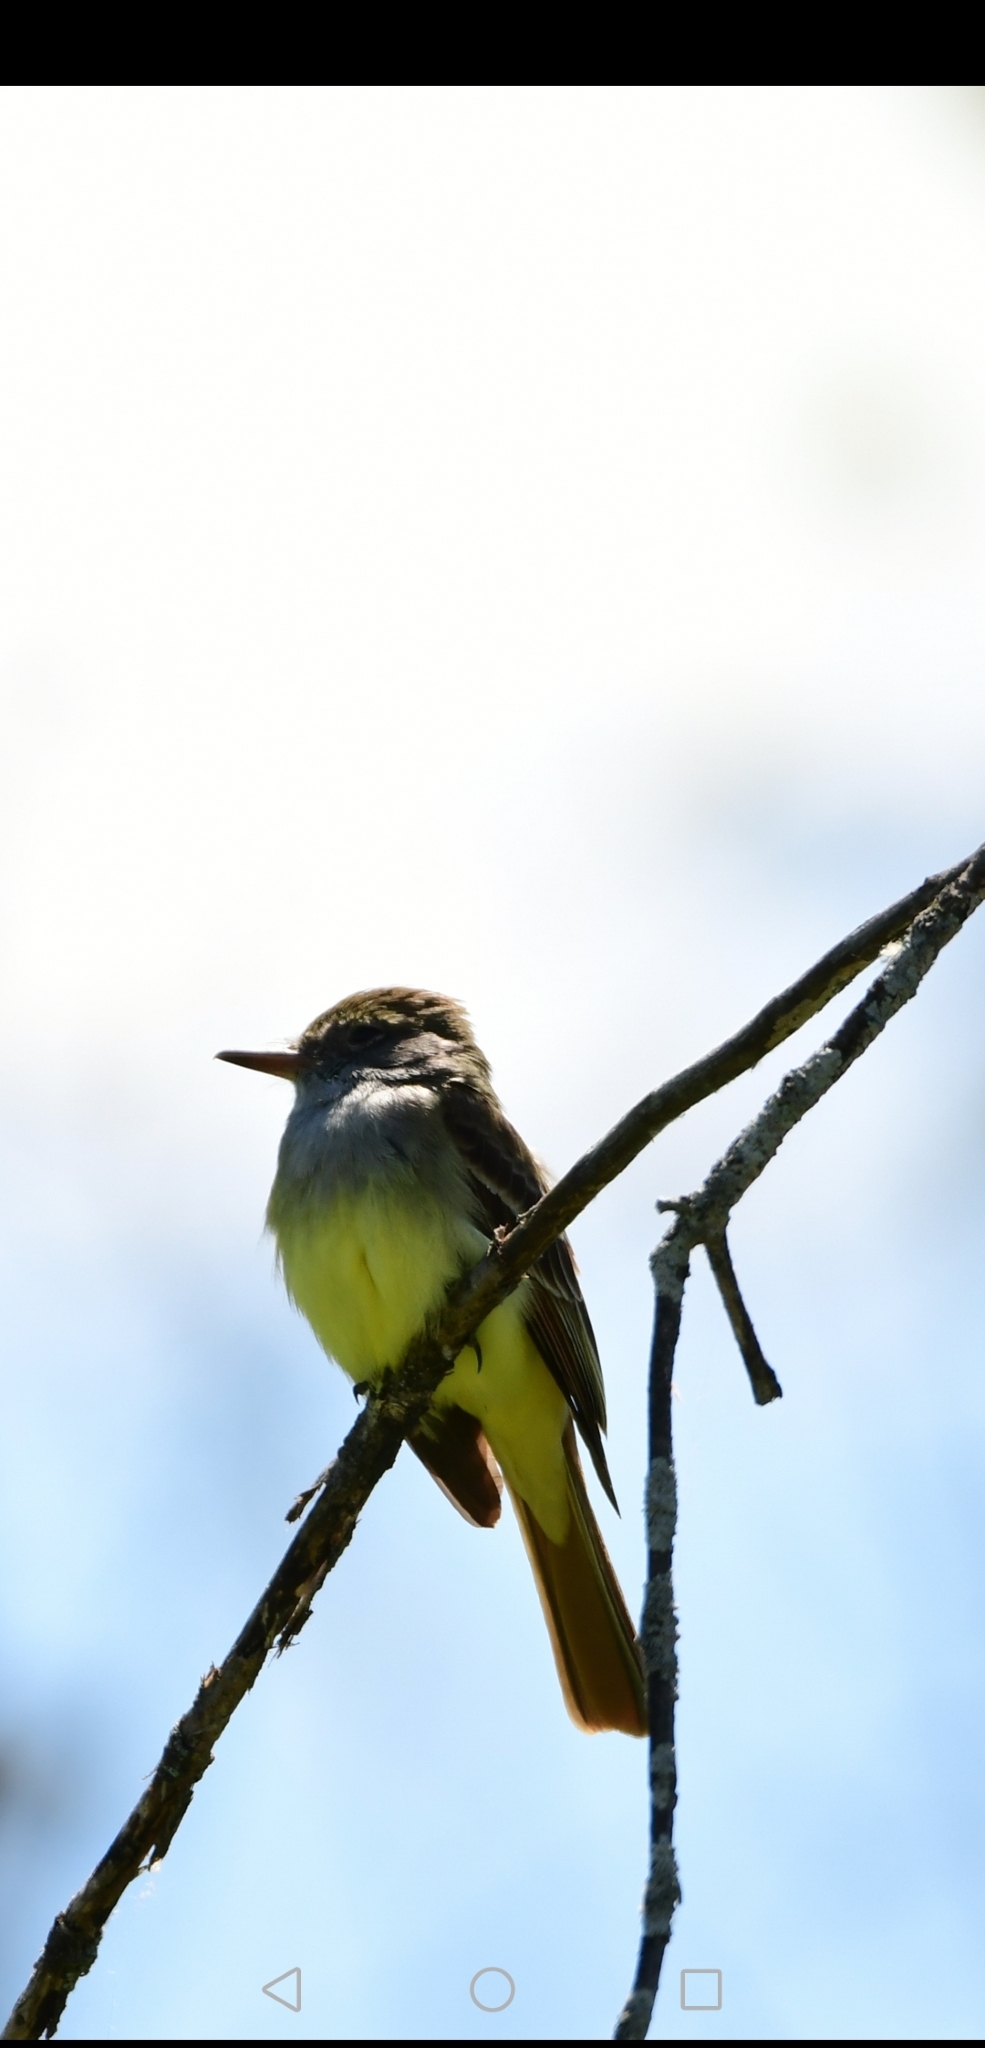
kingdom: Animalia
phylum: Chordata
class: Aves
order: Passeriformes
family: Tyrannidae
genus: Myiarchus
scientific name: Myiarchus crinitus
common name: Great crested flycatcher
